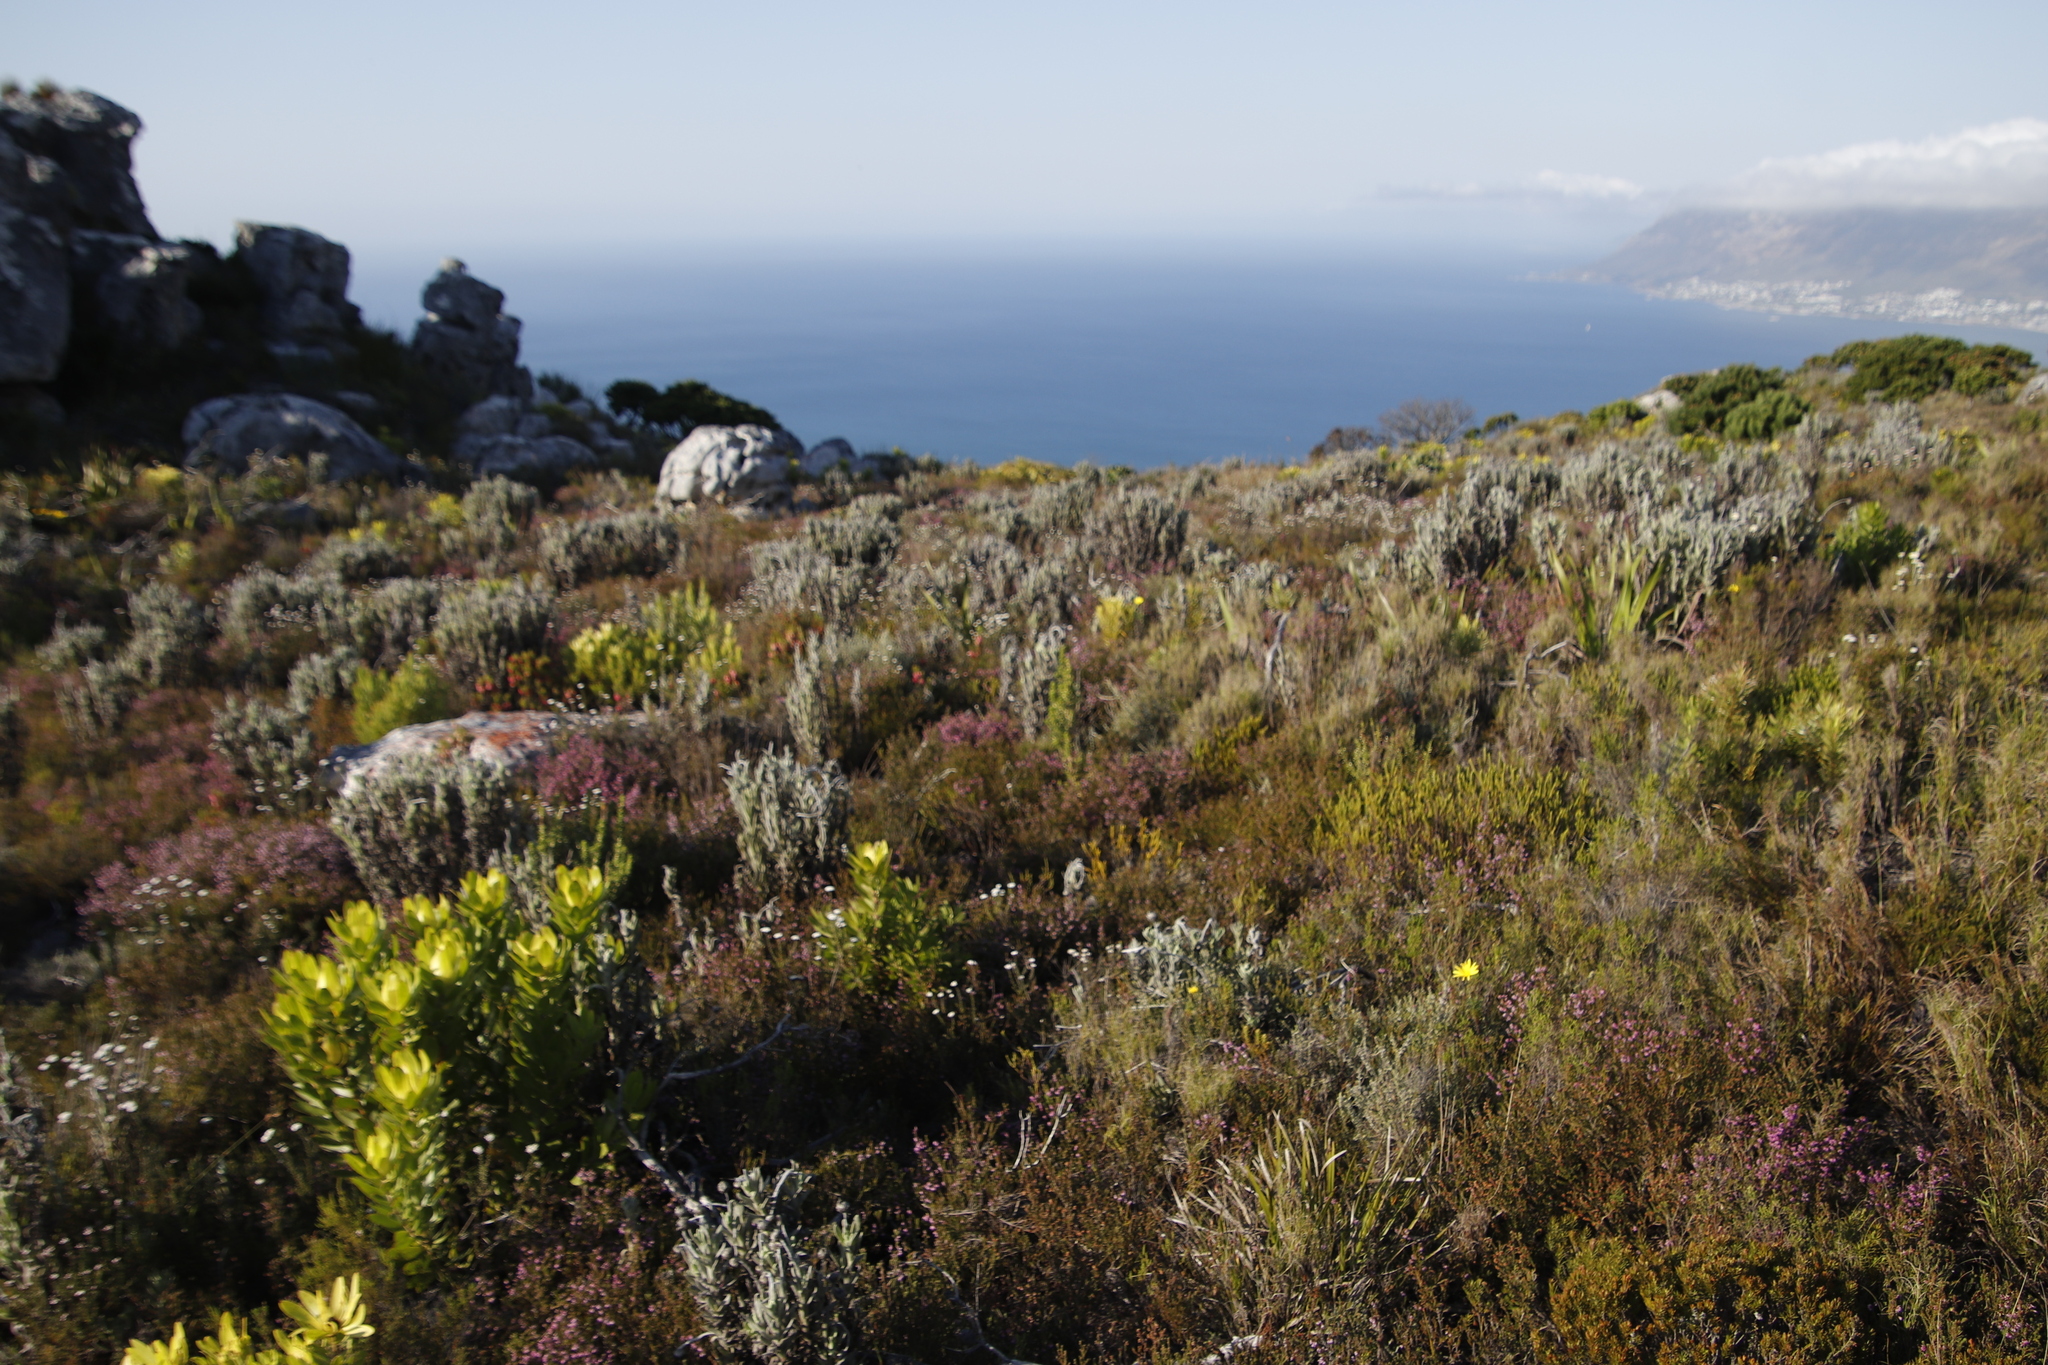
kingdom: Plantae
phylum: Tracheophyta
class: Magnoliopsida
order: Asterales
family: Asteraceae
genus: Syncarpha
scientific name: Syncarpha vestita
